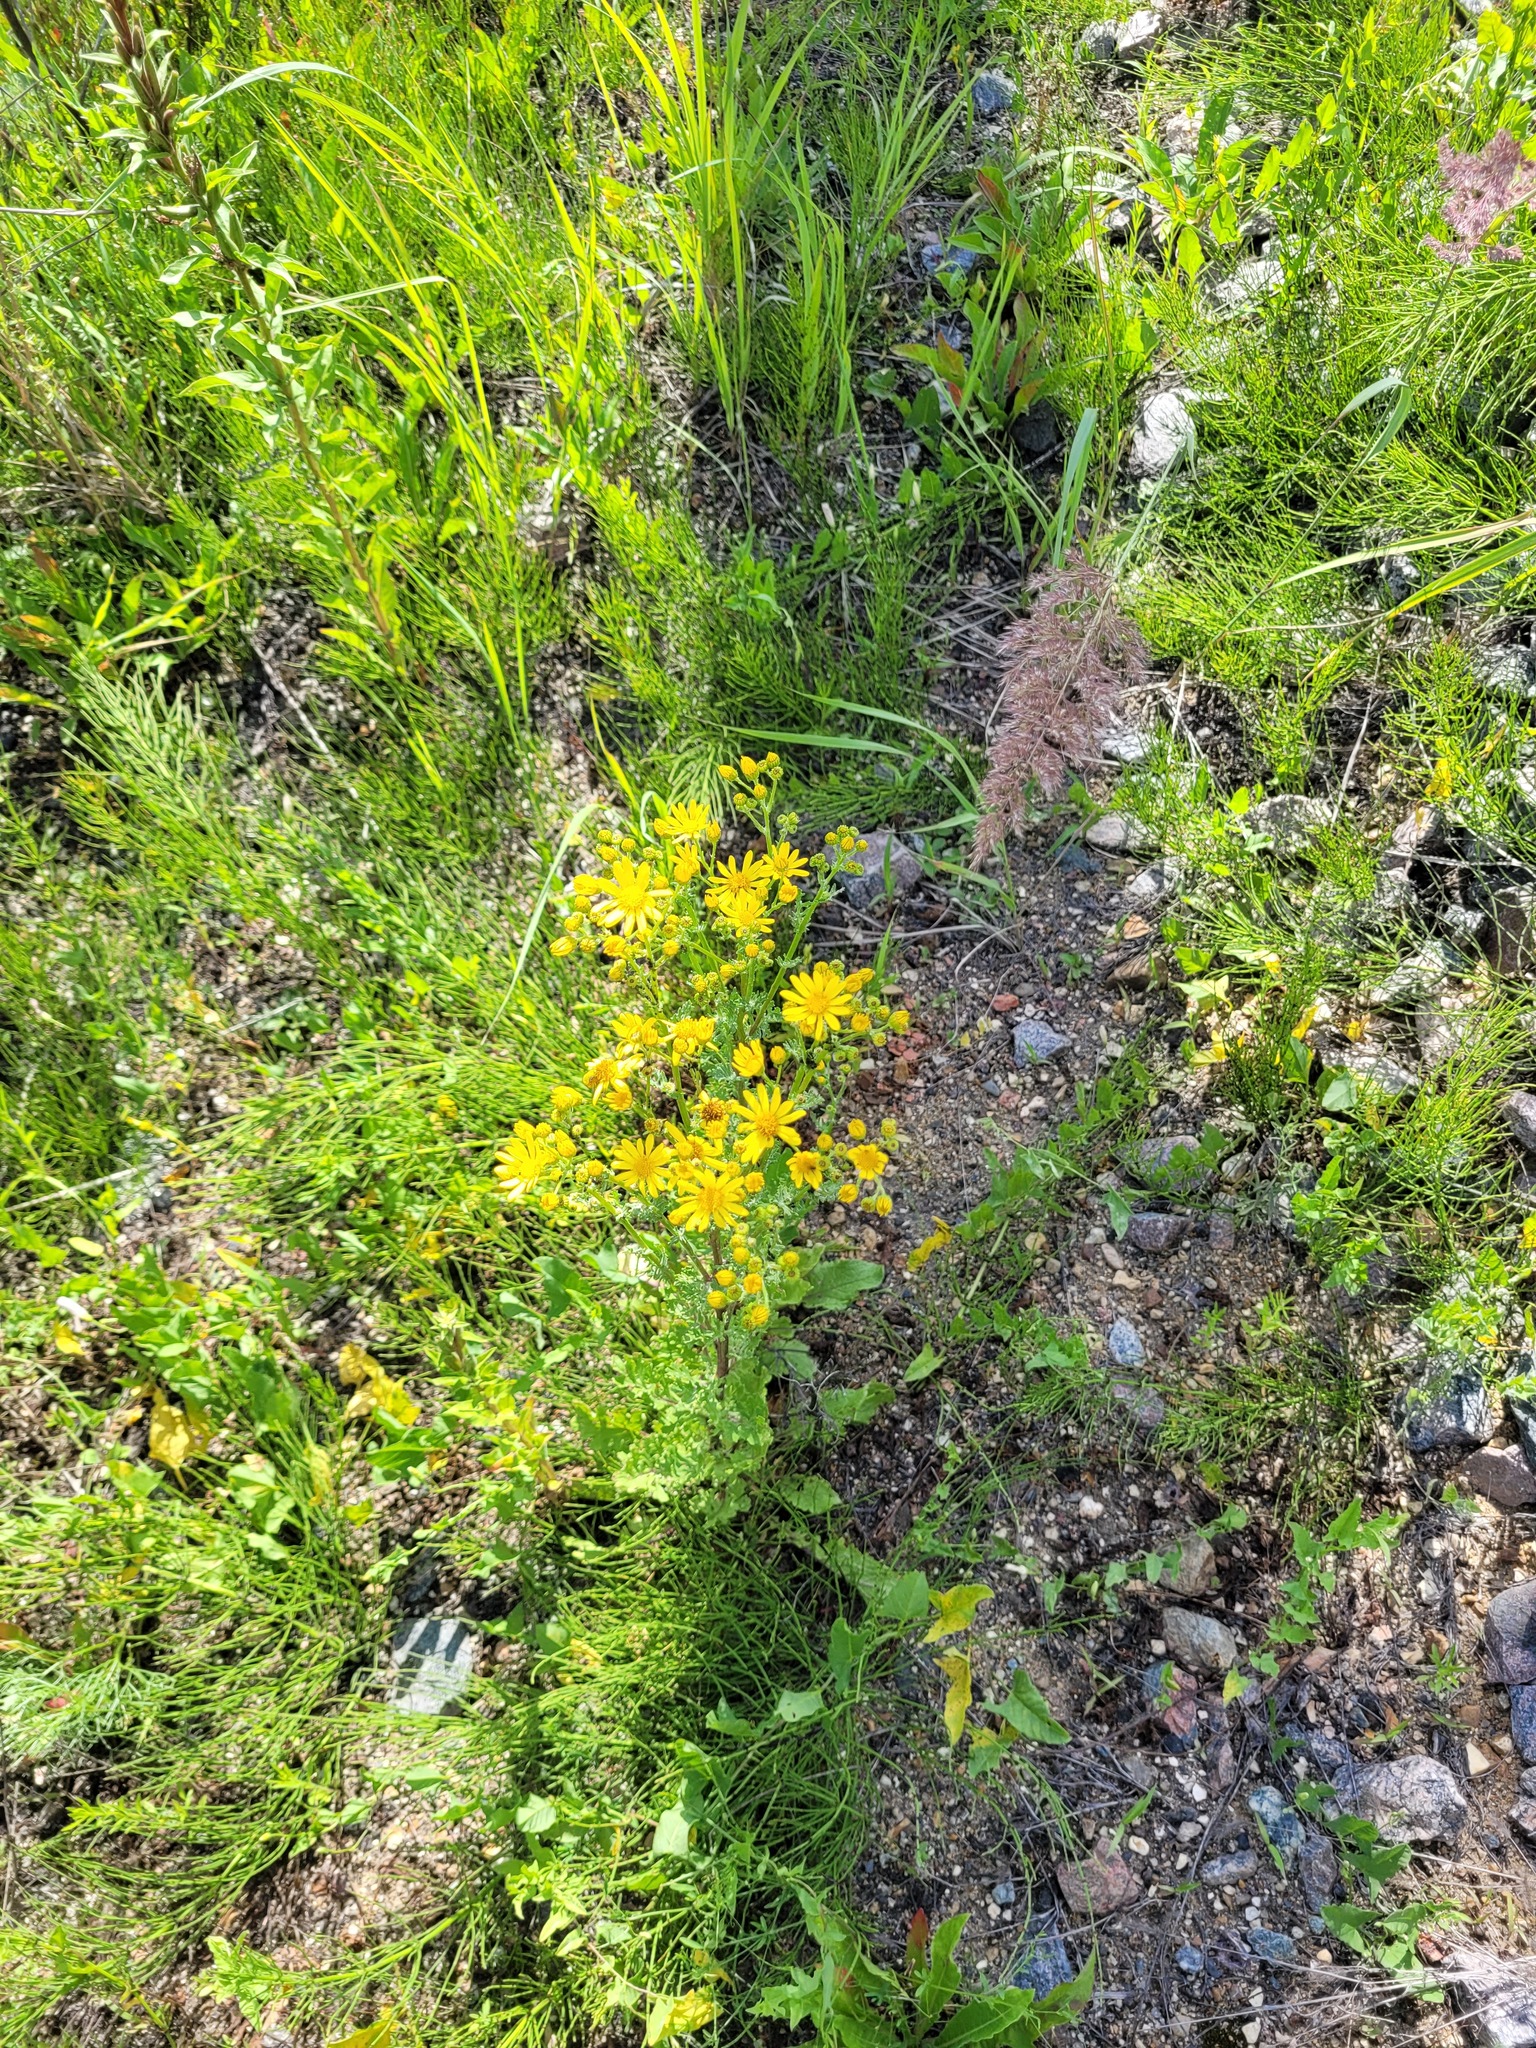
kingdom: Plantae
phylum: Tracheophyta
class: Magnoliopsida
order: Asterales
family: Asteraceae
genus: Jacobaea
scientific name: Jacobaea vulgaris
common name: Stinking willie
